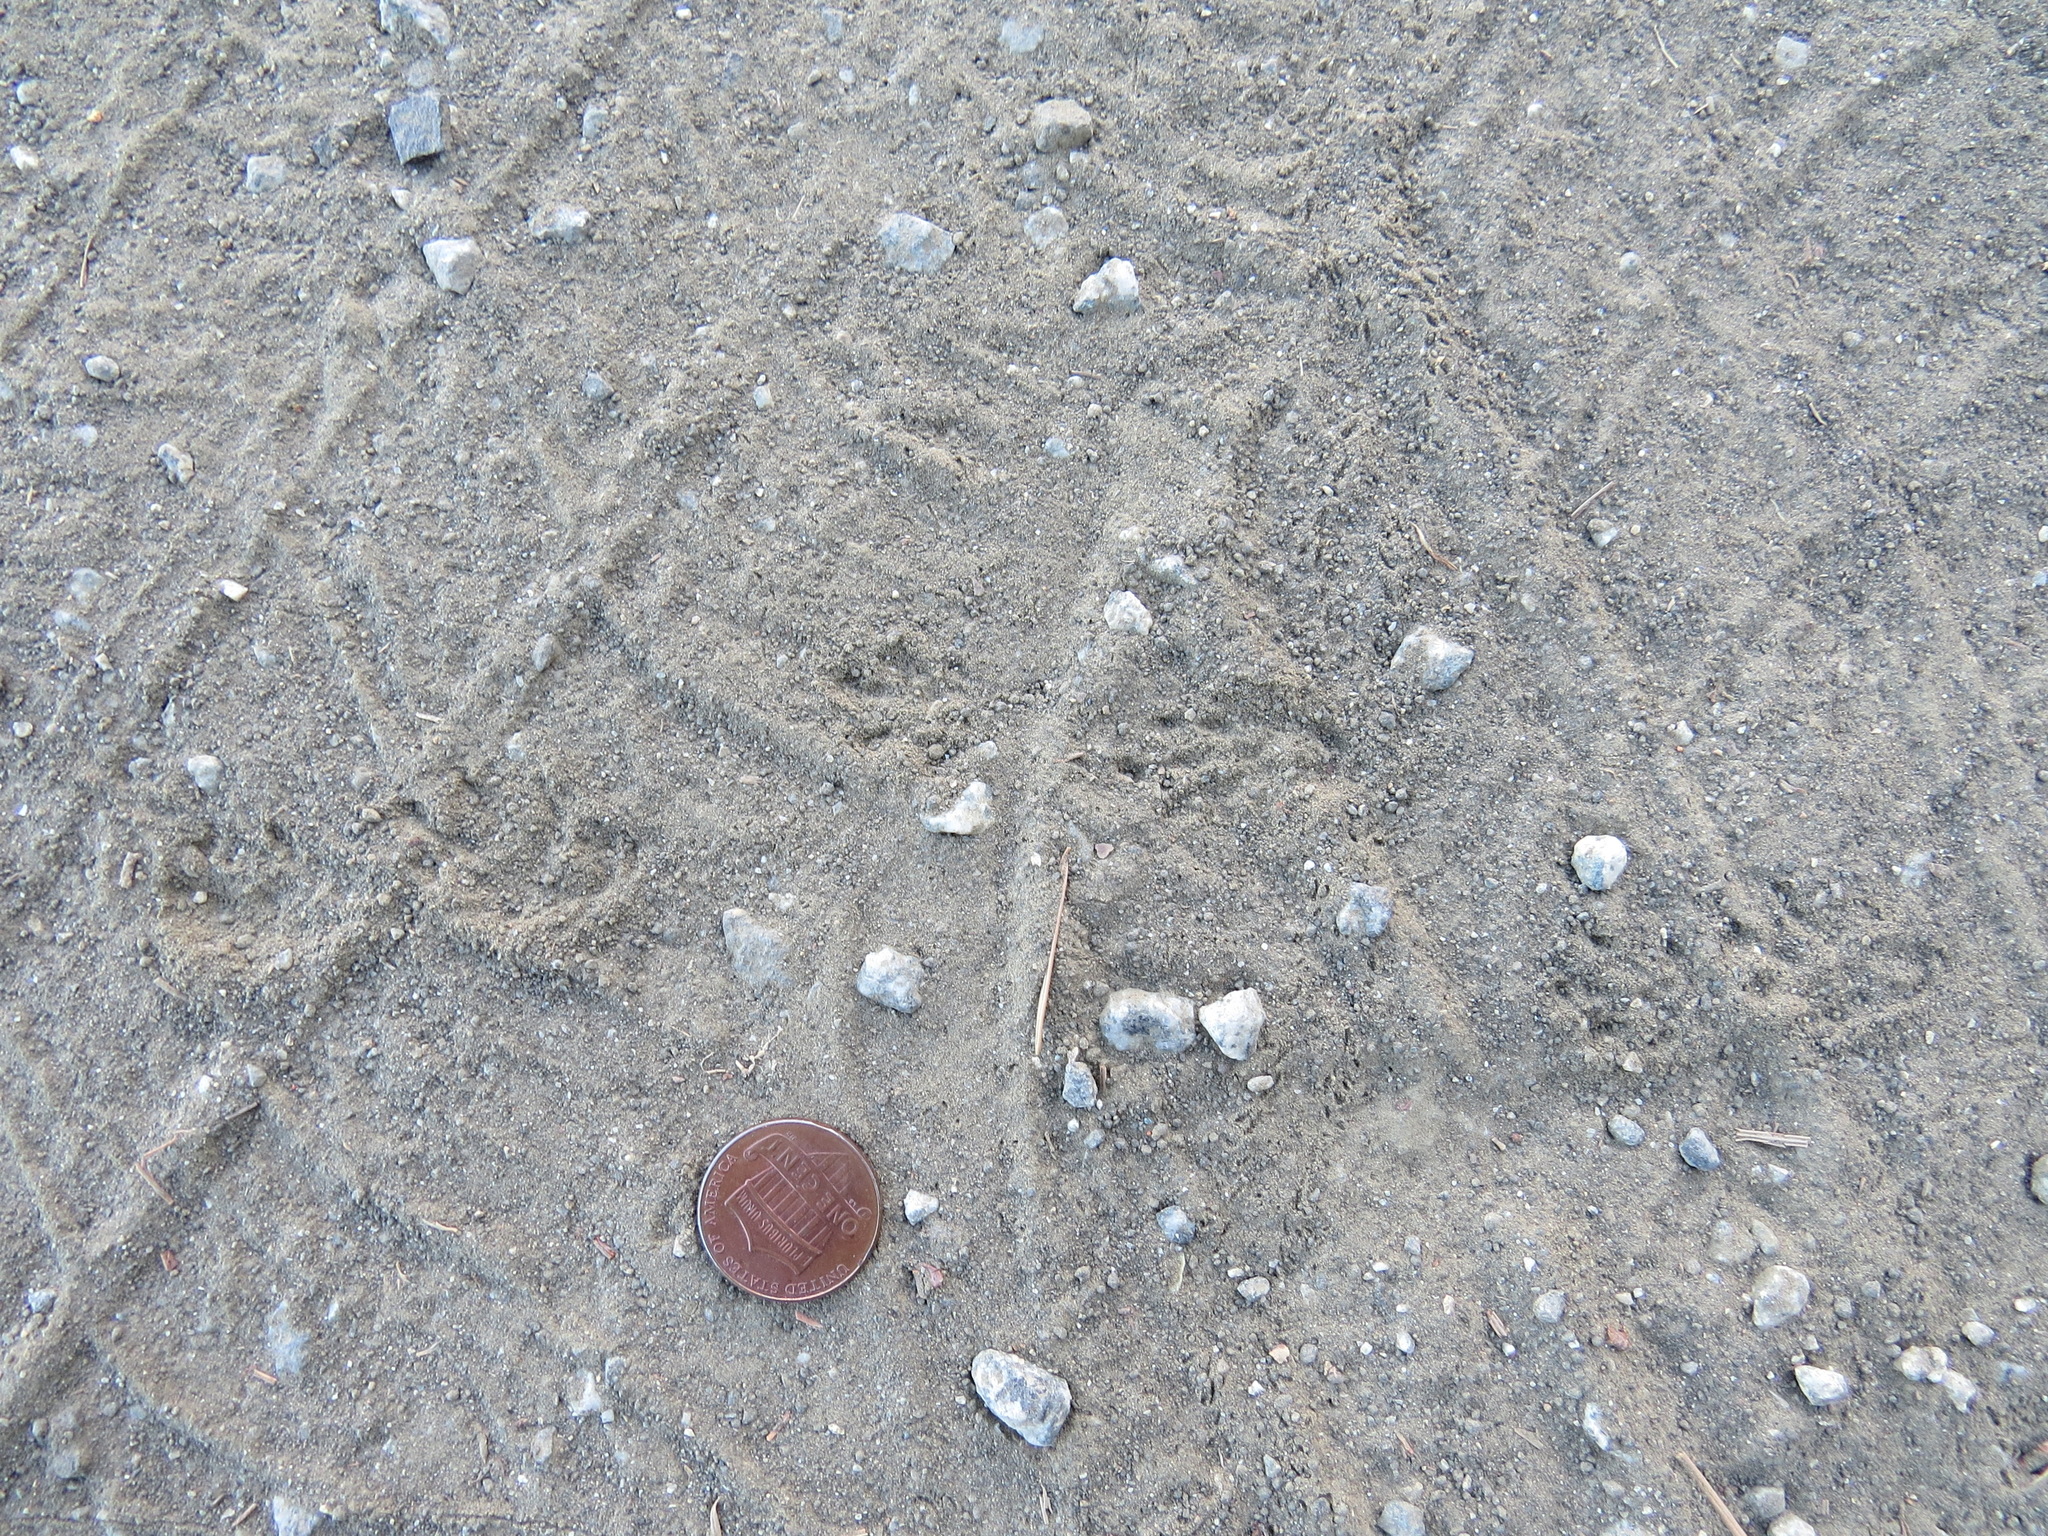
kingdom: Animalia
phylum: Chordata
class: Mammalia
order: Rodentia
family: Geomyidae
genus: Thomomys
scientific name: Thomomys bottae
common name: Botta's pocket gopher
